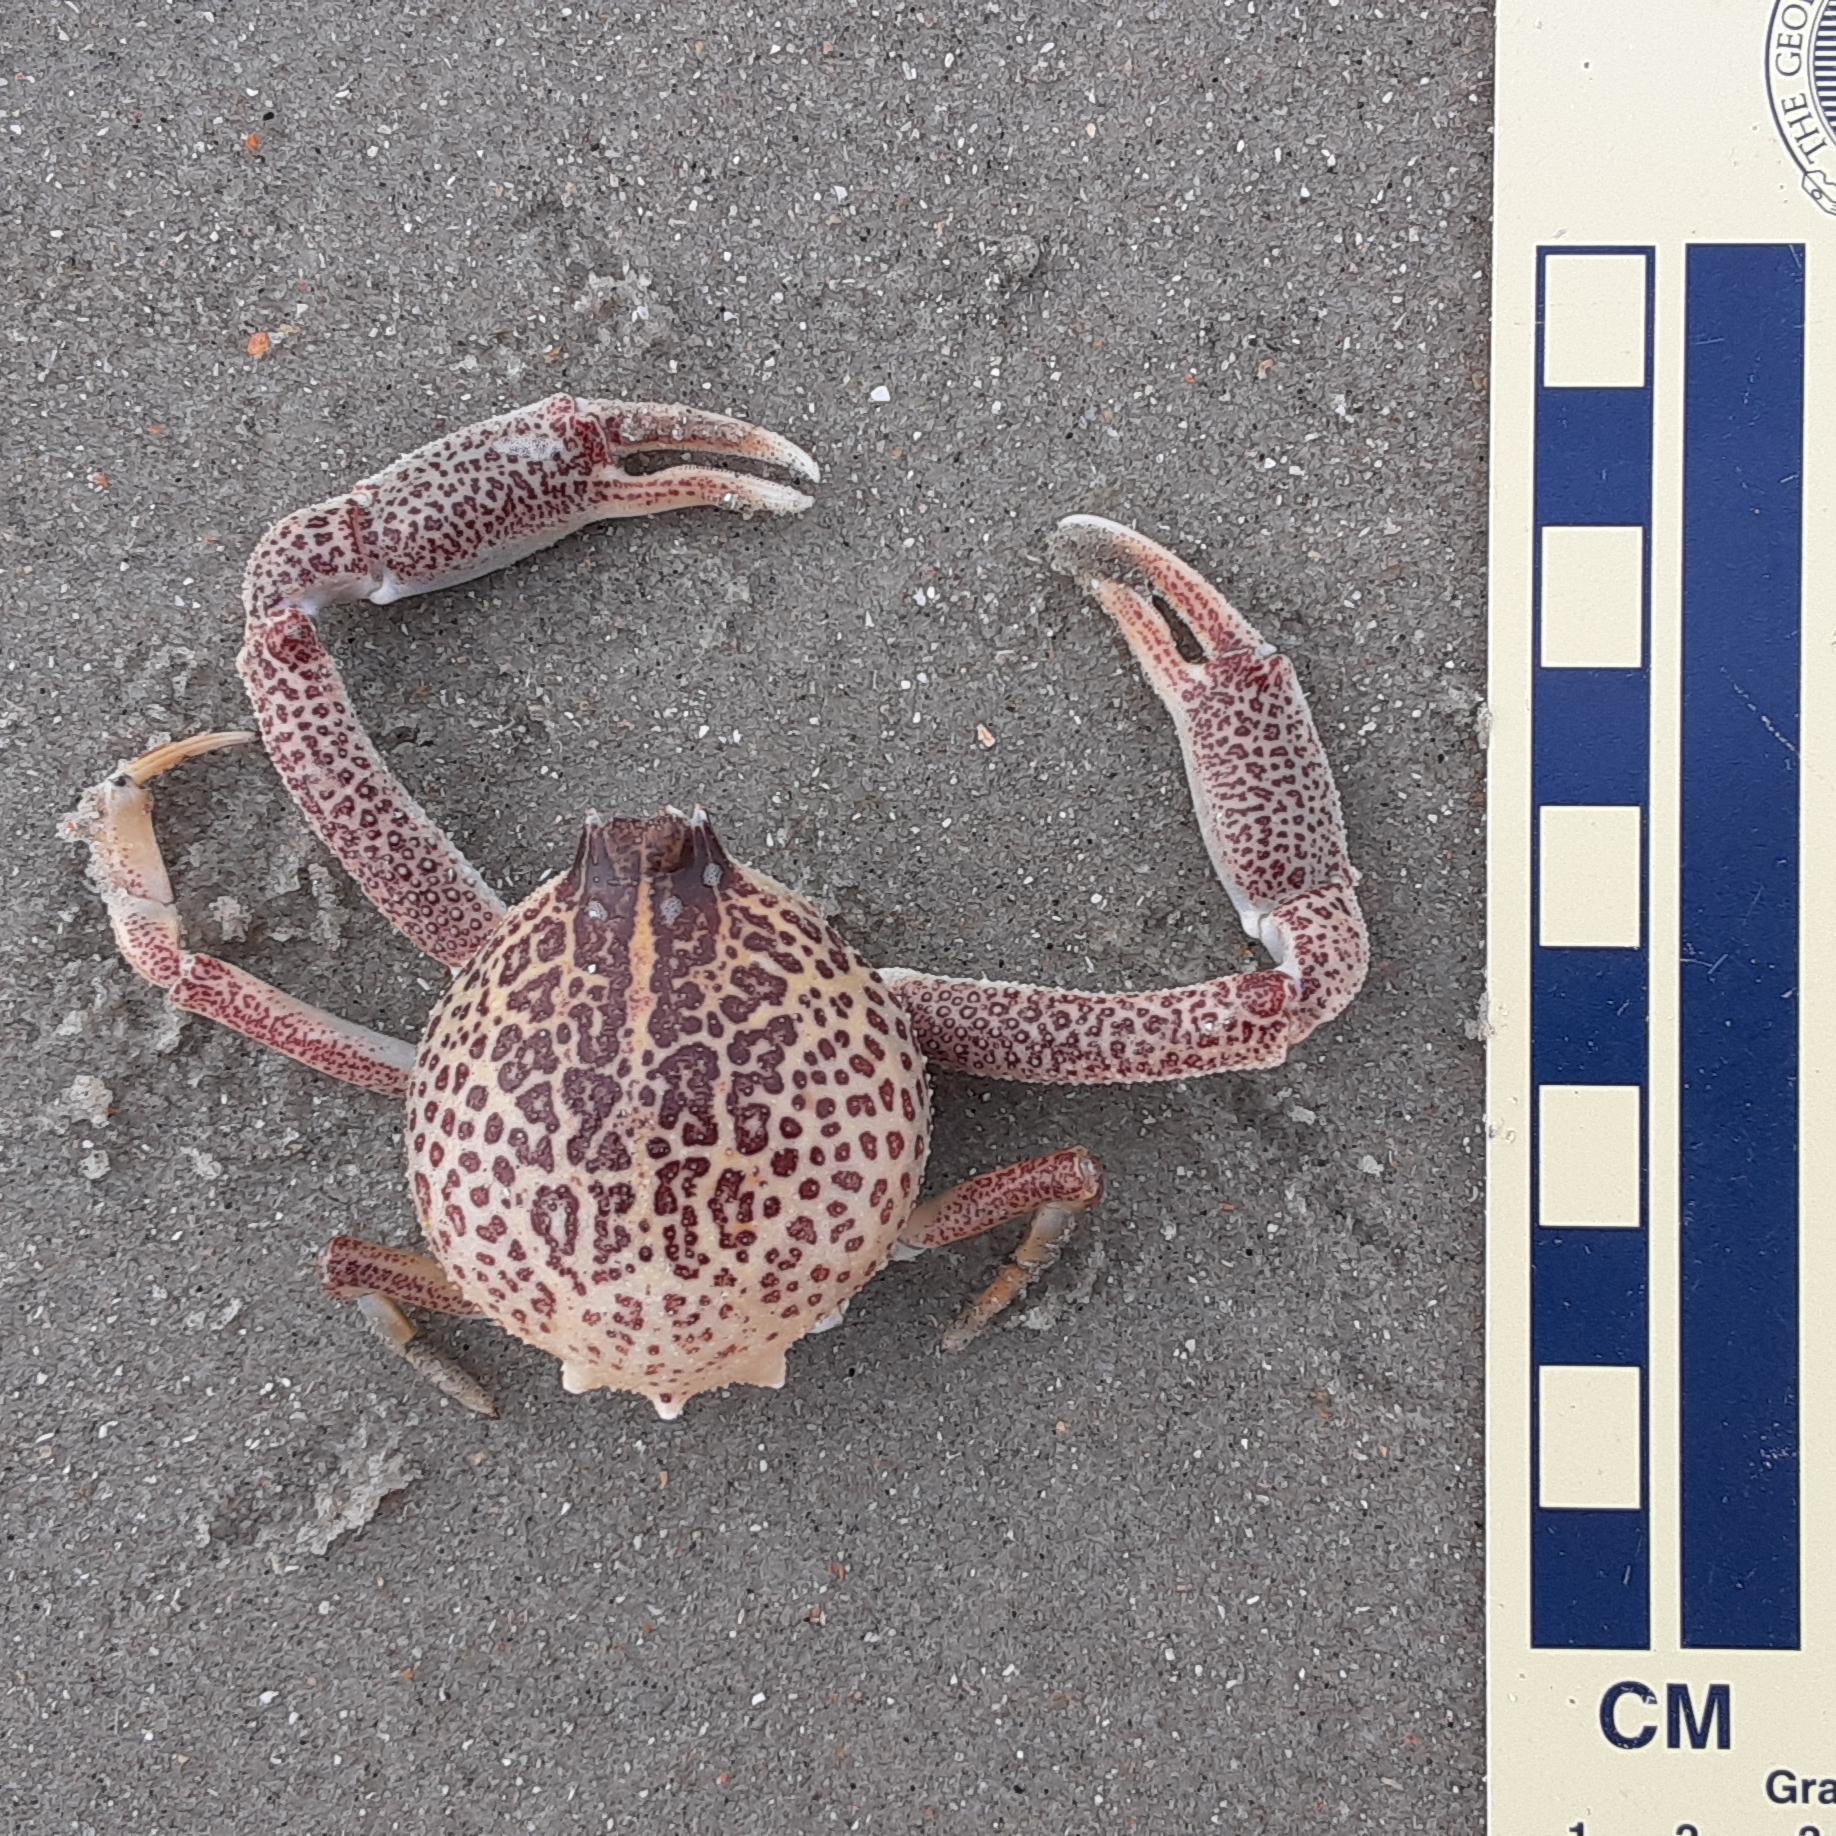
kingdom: Animalia
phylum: Arthropoda
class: Malacostraca
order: Decapoda
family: Leucosiidae
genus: Persephona
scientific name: Persephona aquilonaris
